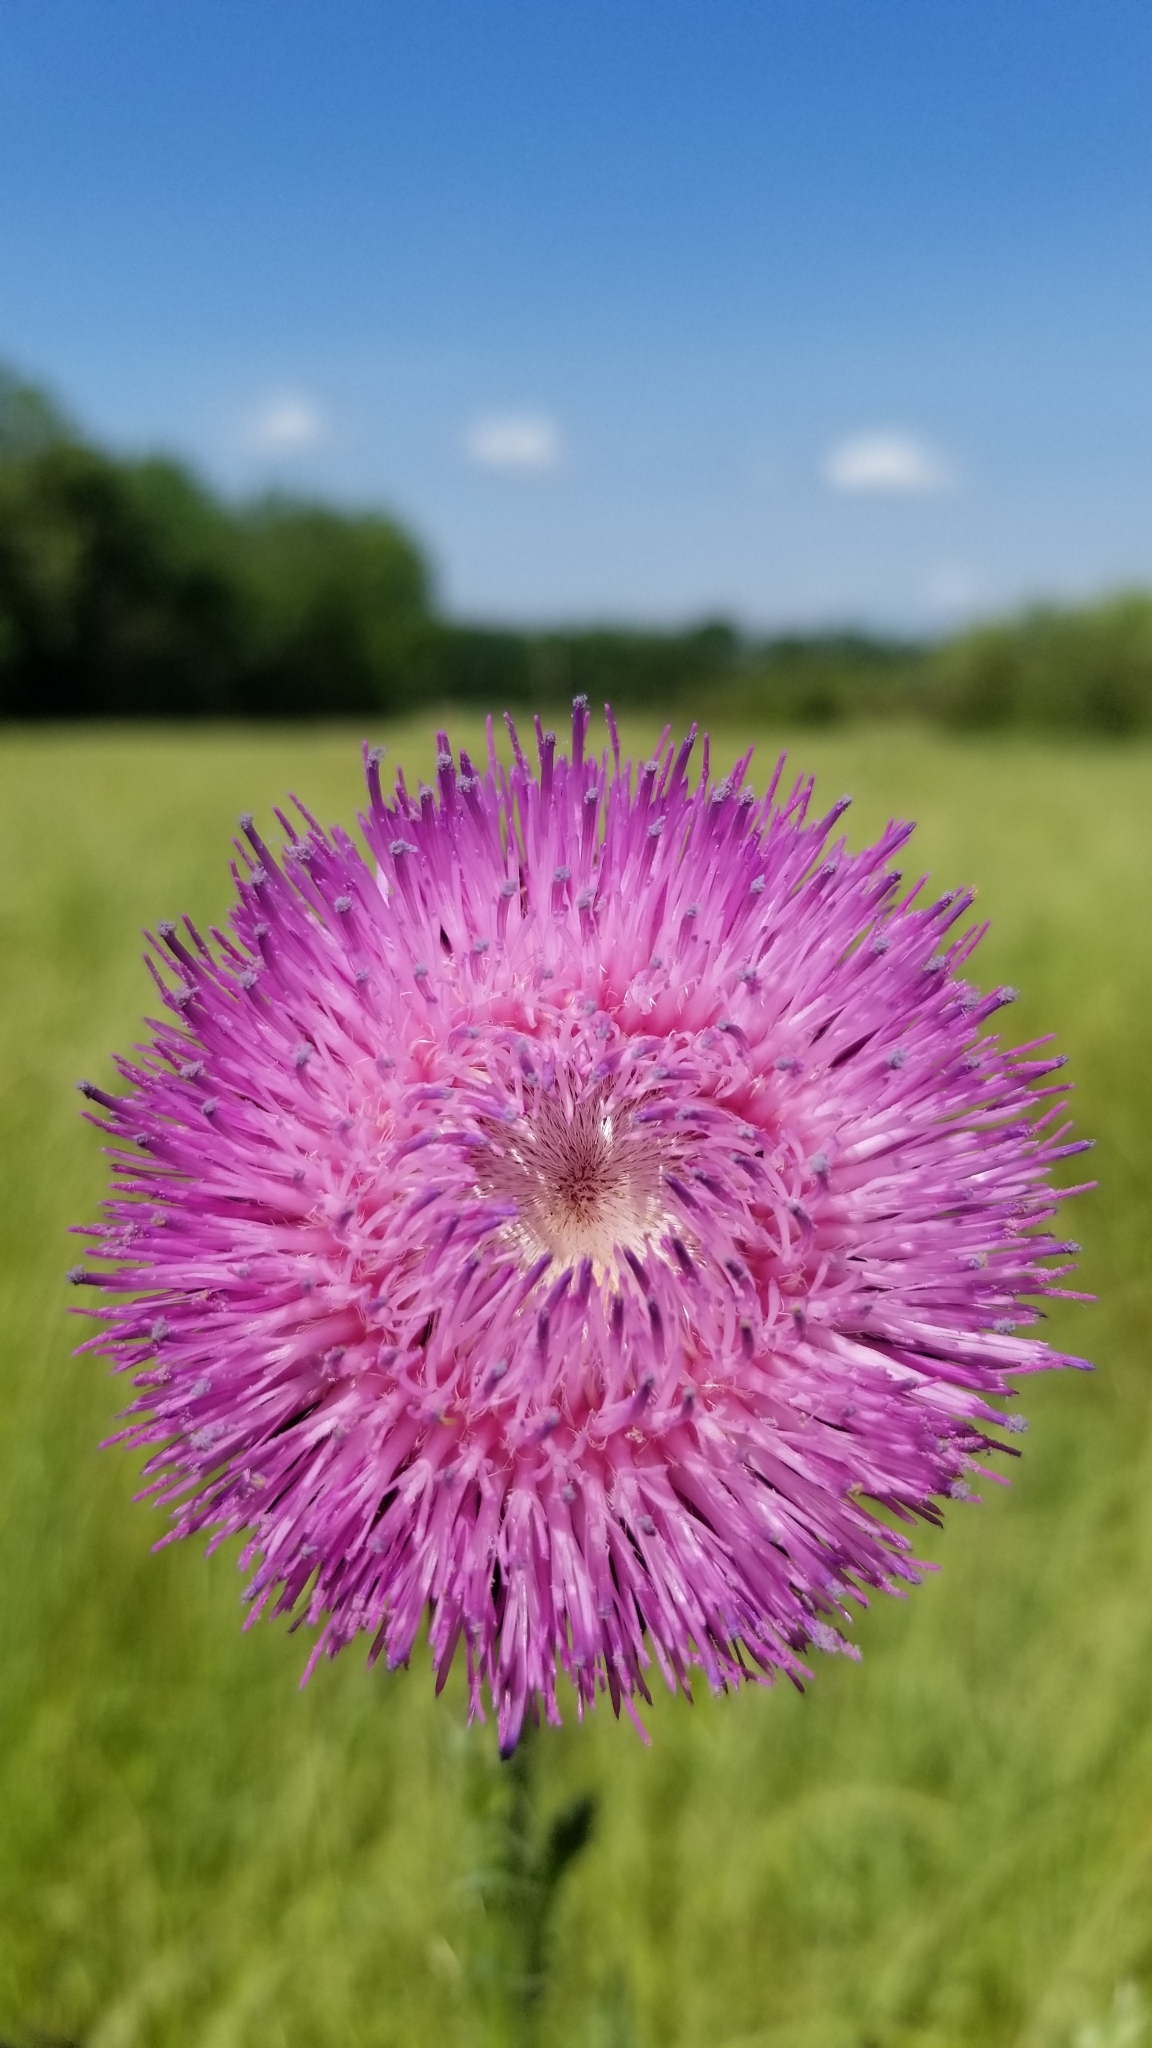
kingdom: Plantae
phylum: Tracheophyta
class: Magnoliopsida
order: Asterales
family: Asteraceae
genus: Carduus
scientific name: Carduus nutans
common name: Musk thistle
